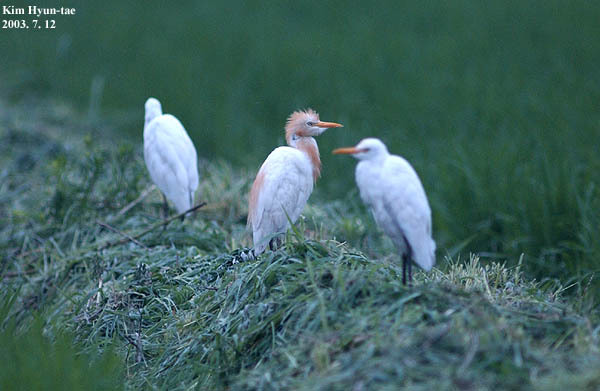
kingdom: Animalia
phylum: Chordata
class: Aves
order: Pelecaniformes
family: Ardeidae
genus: Bubulcus
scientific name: Bubulcus coromandus
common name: Eastern cattle egret
